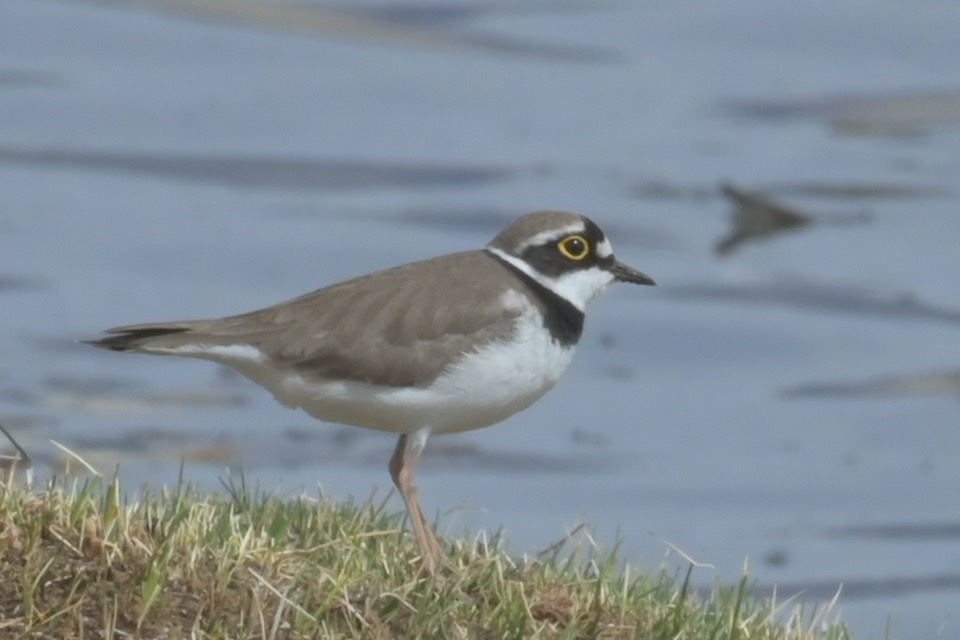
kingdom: Animalia
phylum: Chordata
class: Aves
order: Charadriiformes
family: Charadriidae
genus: Charadrius
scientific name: Charadrius dubius
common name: Little ringed plover
